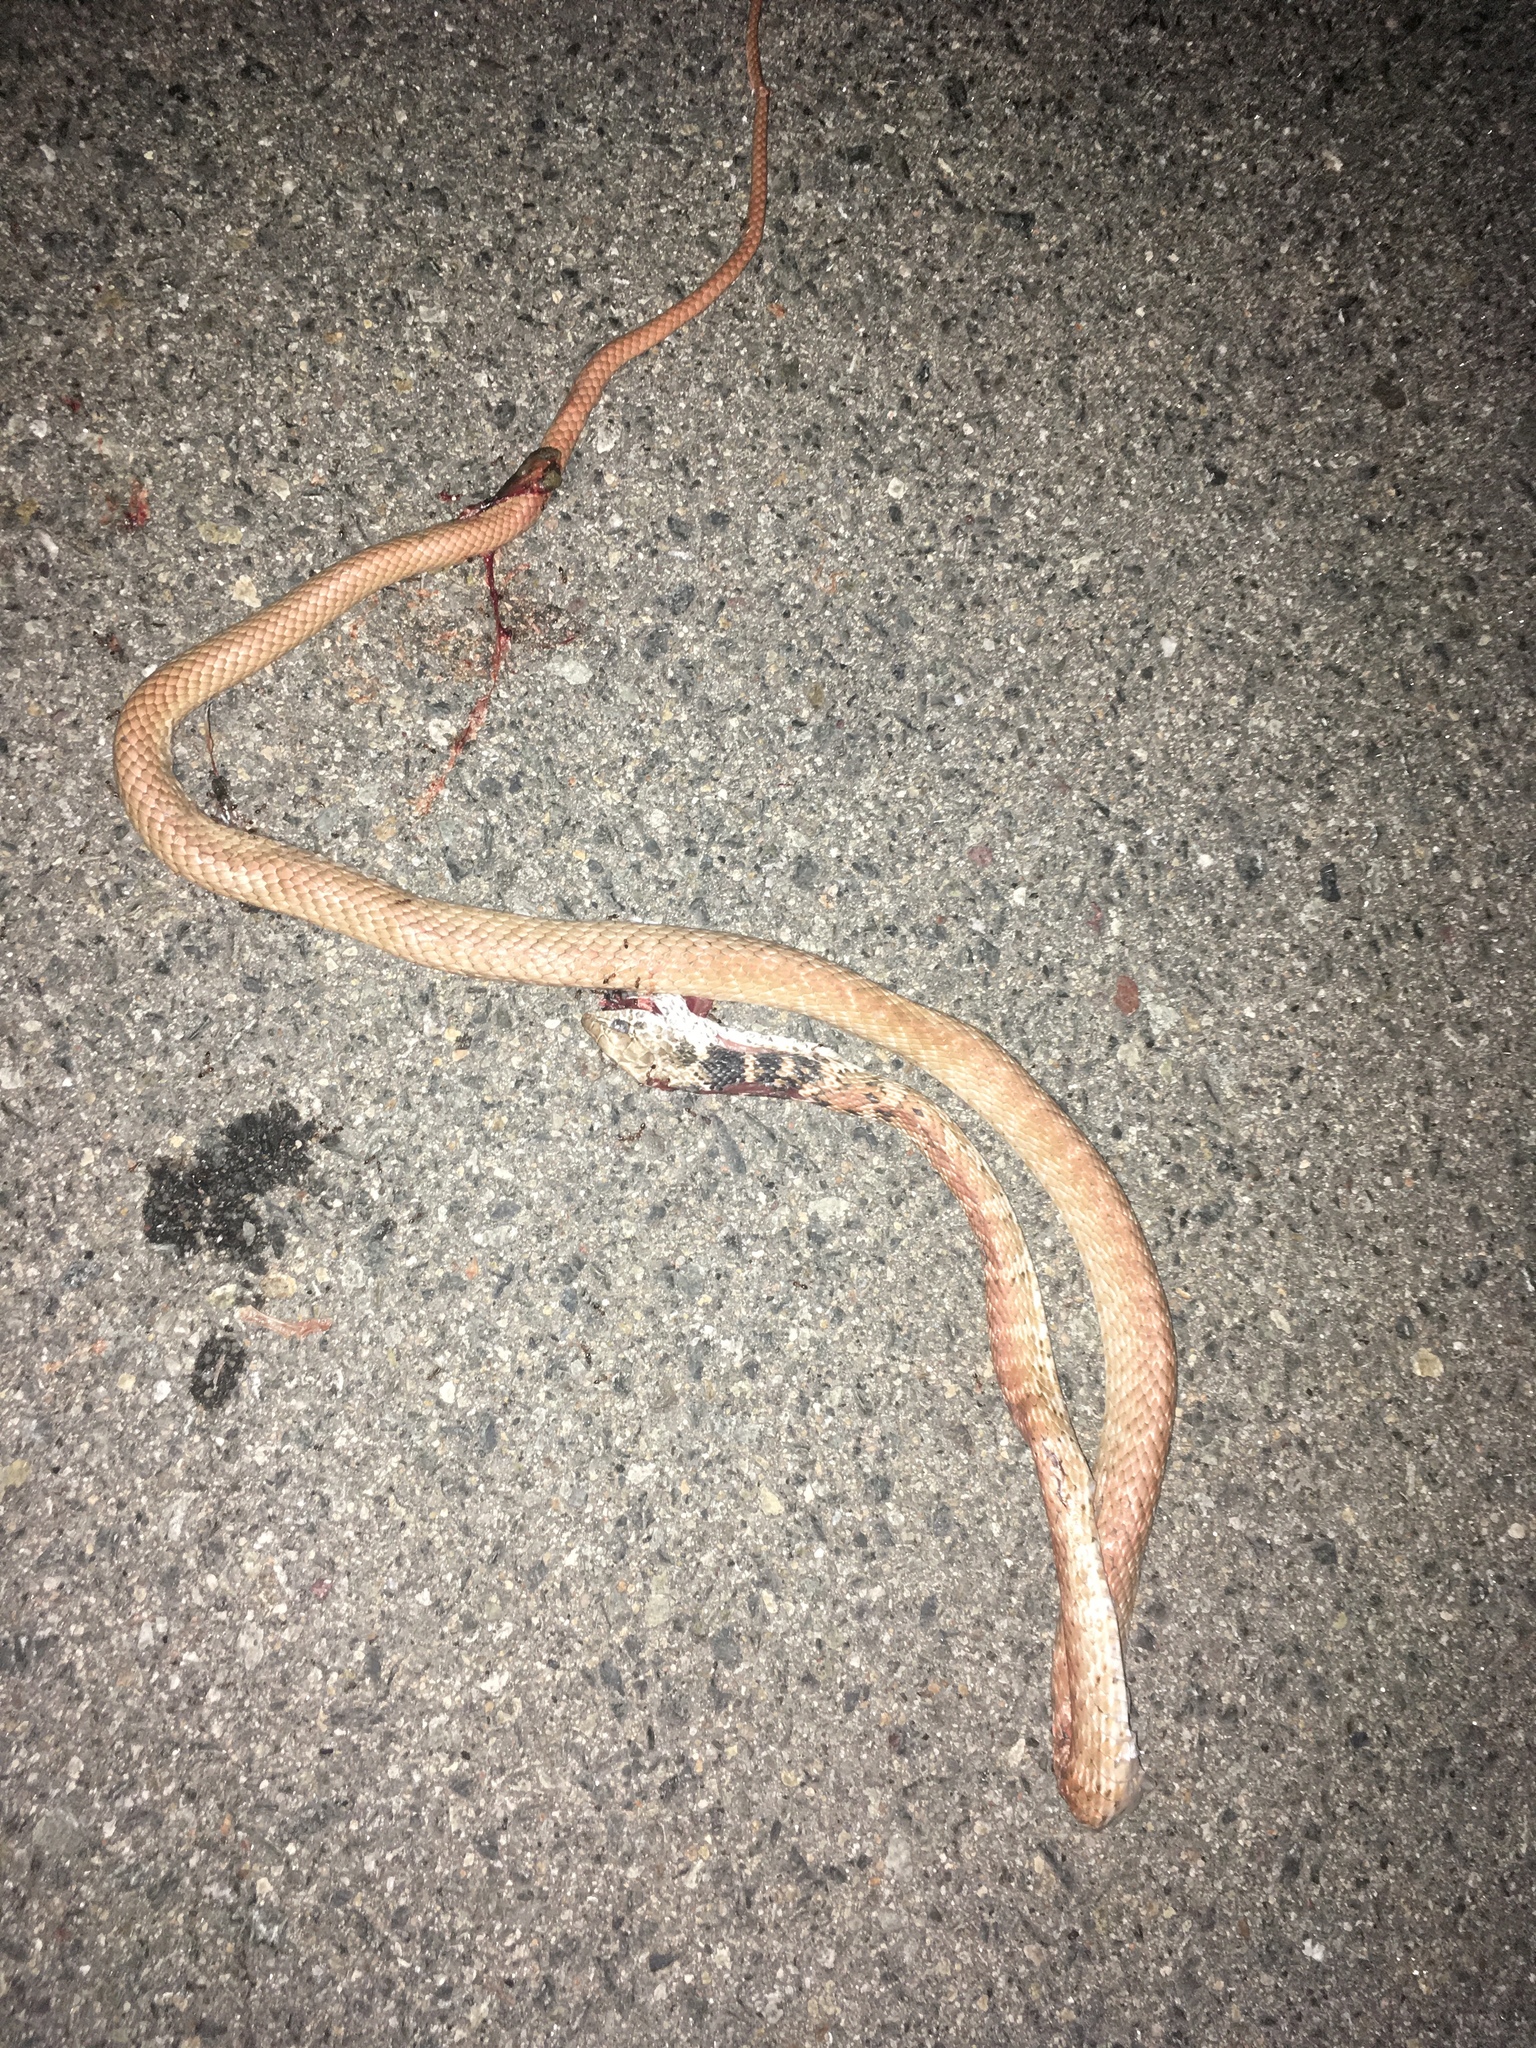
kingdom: Animalia
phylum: Chordata
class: Squamata
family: Colubridae
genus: Masticophis
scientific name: Masticophis flagellum
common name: Coachwhip
